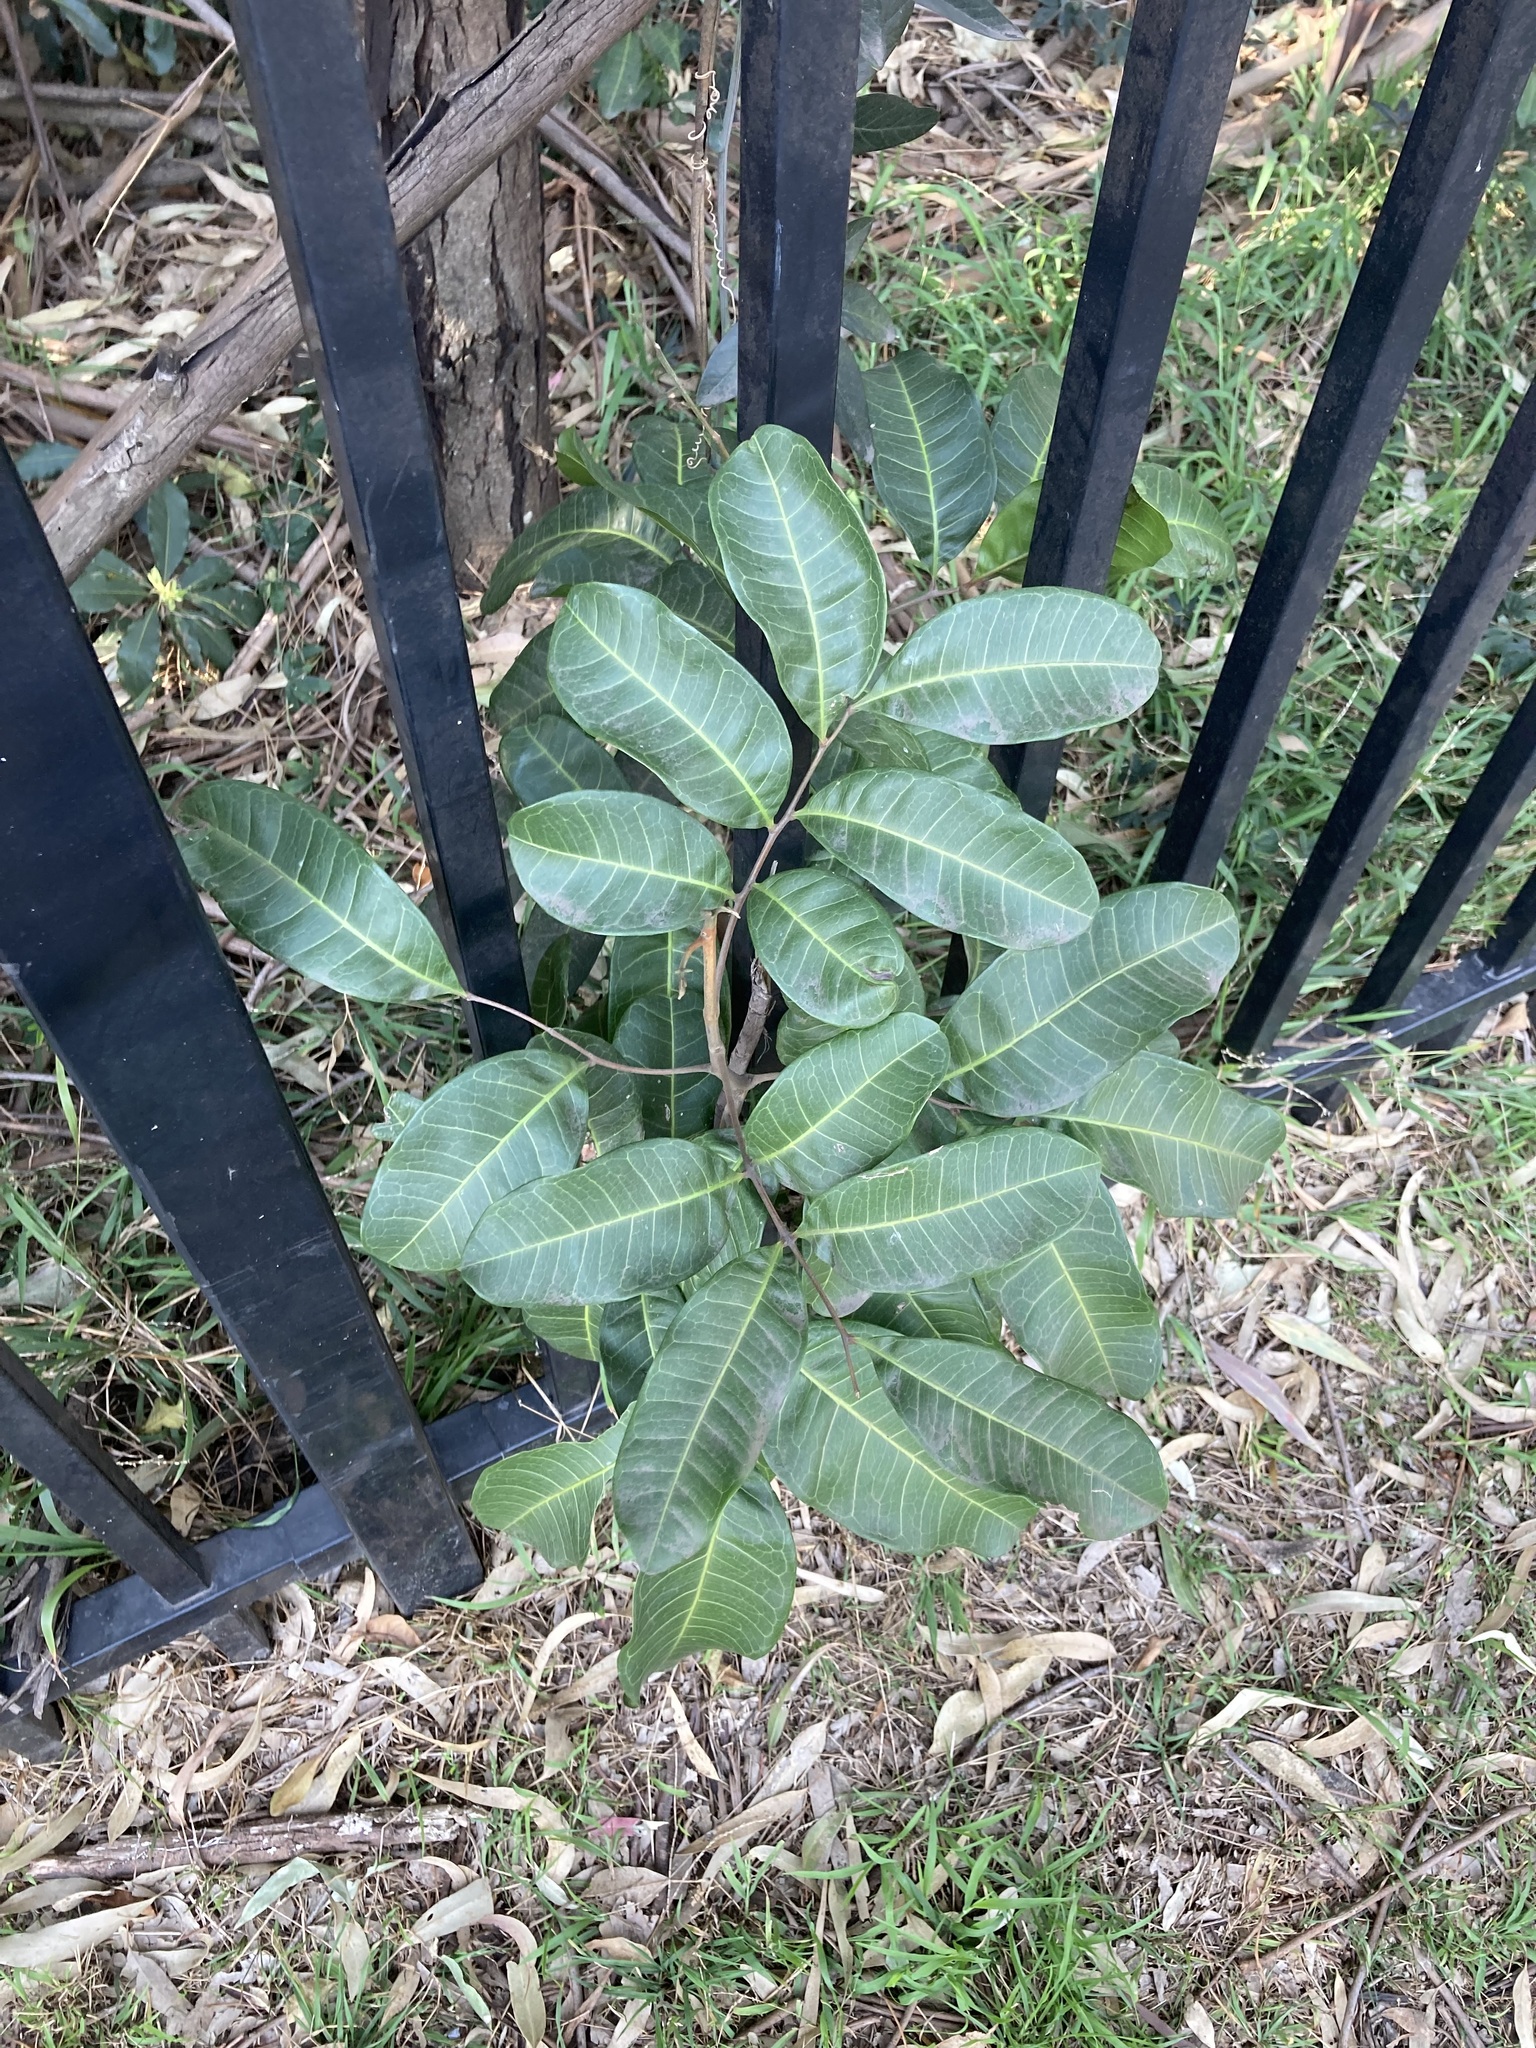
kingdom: Plantae
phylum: Tracheophyta
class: Magnoliopsida
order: Sapindales
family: Sapindaceae
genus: Cupaniopsis
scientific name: Cupaniopsis anacardioides
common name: Carrotwood
